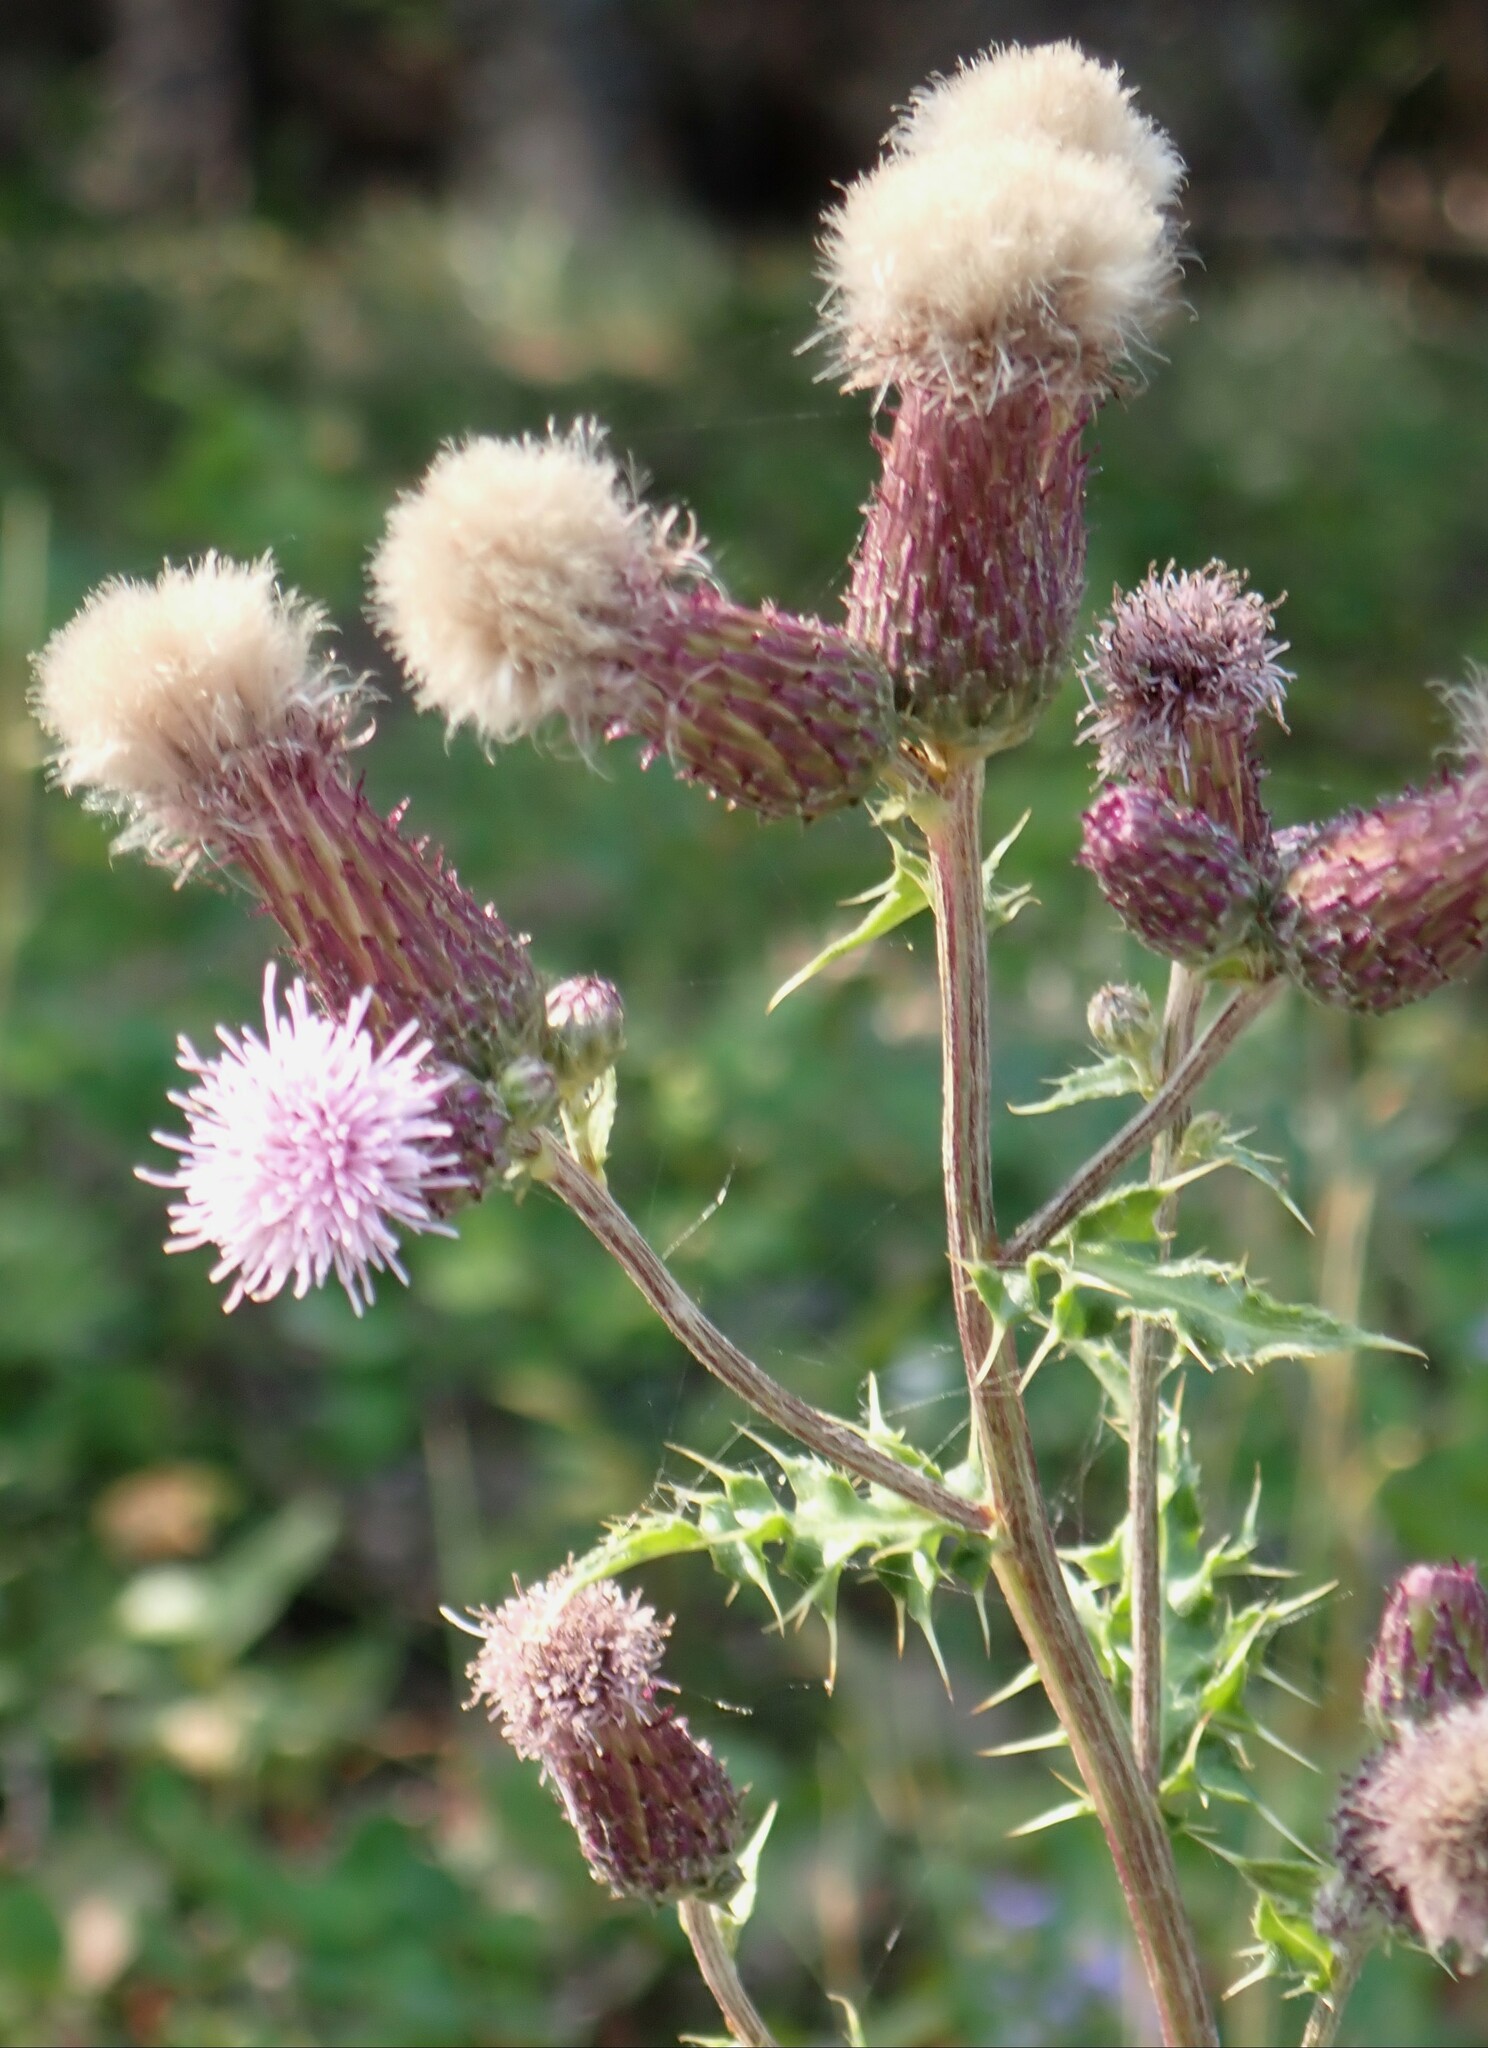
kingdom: Plantae
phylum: Tracheophyta
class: Magnoliopsida
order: Asterales
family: Asteraceae
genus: Cirsium
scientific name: Cirsium arvense
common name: Creeping thistle
